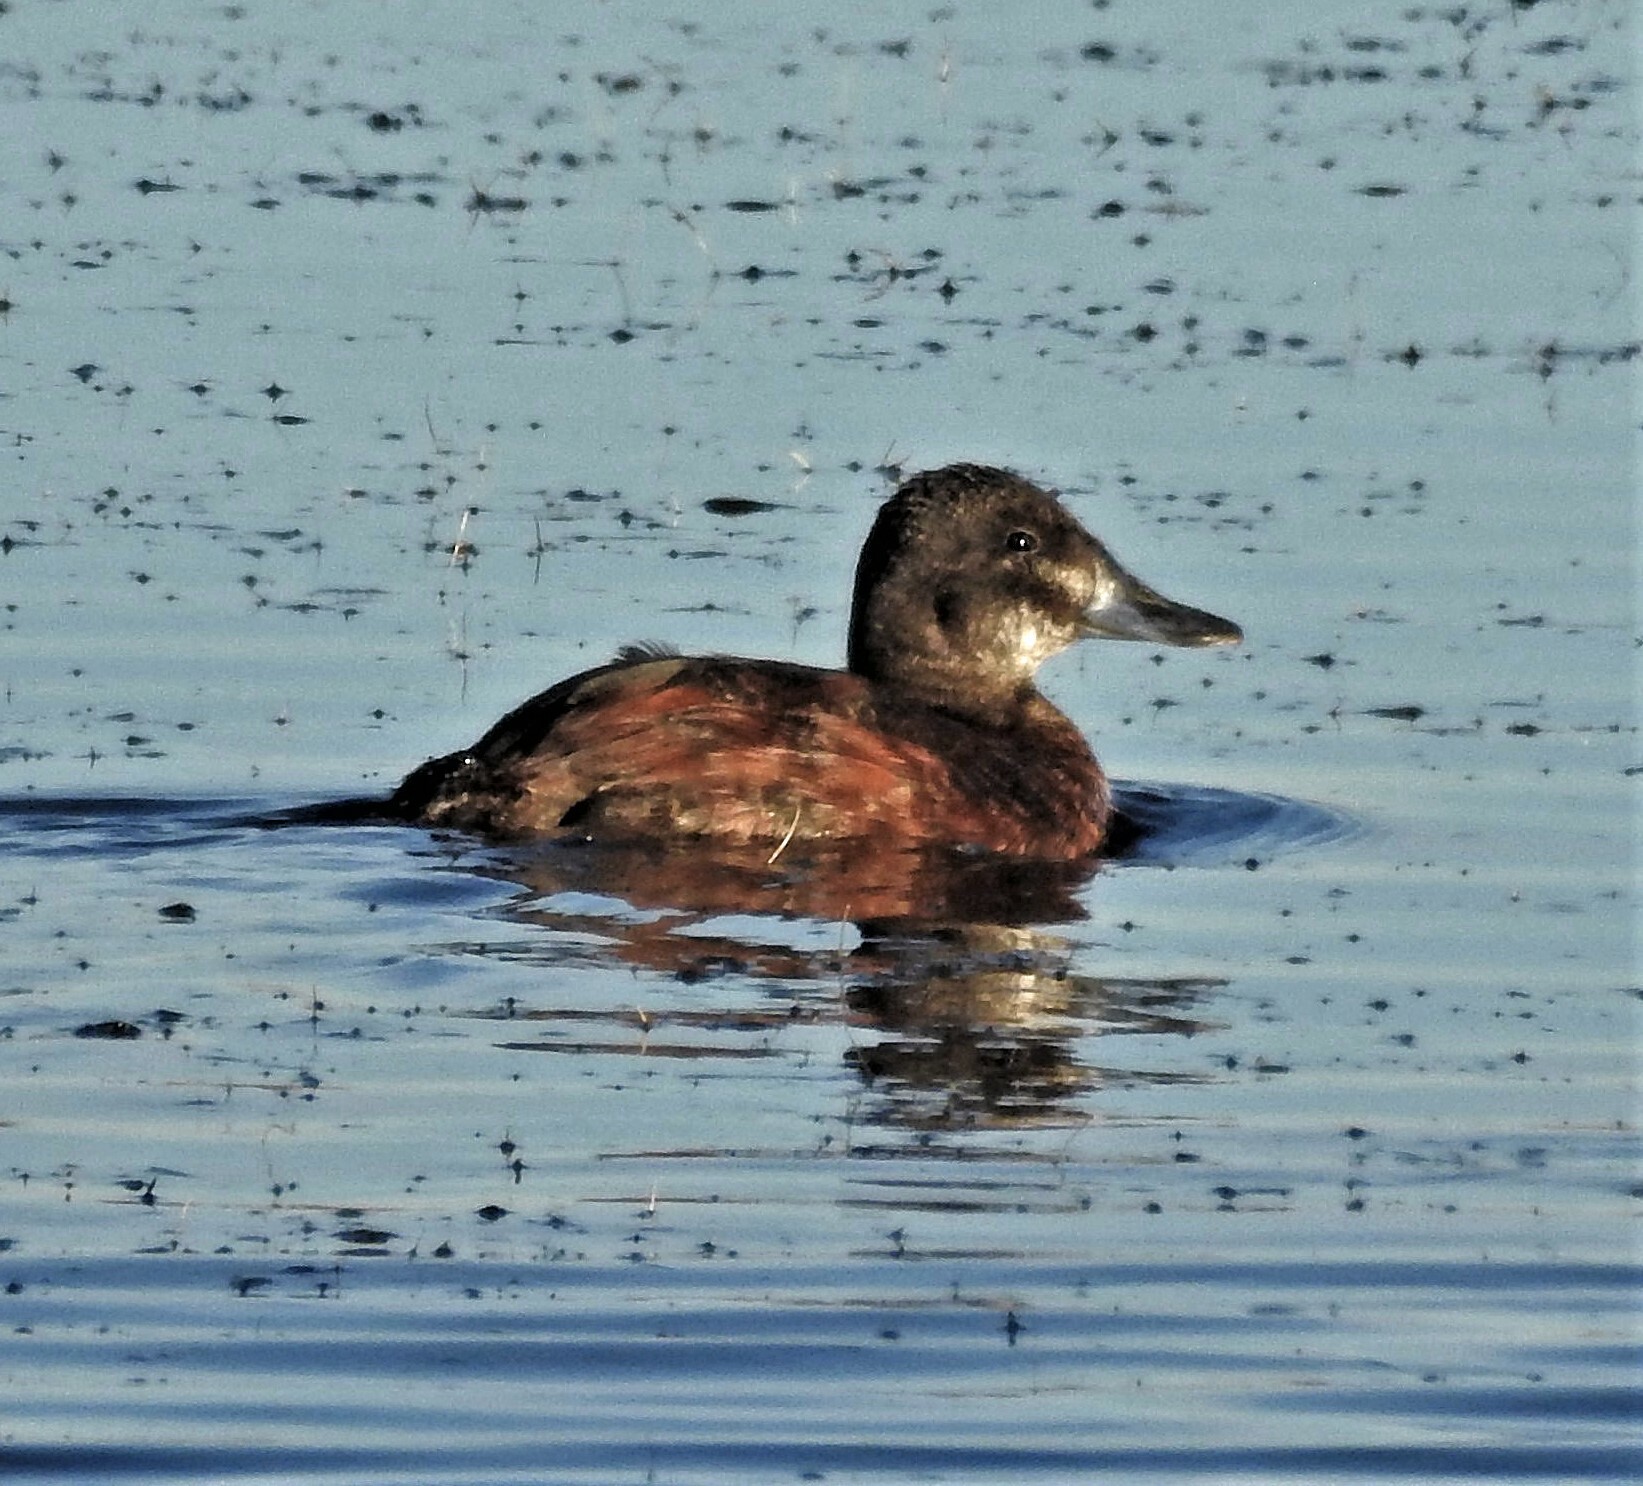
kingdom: Animalia
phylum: Chordata
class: Aves
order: Anseriformes
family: Anatidae
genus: Oxyura
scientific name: Oxyura vittata
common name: Lake duck
